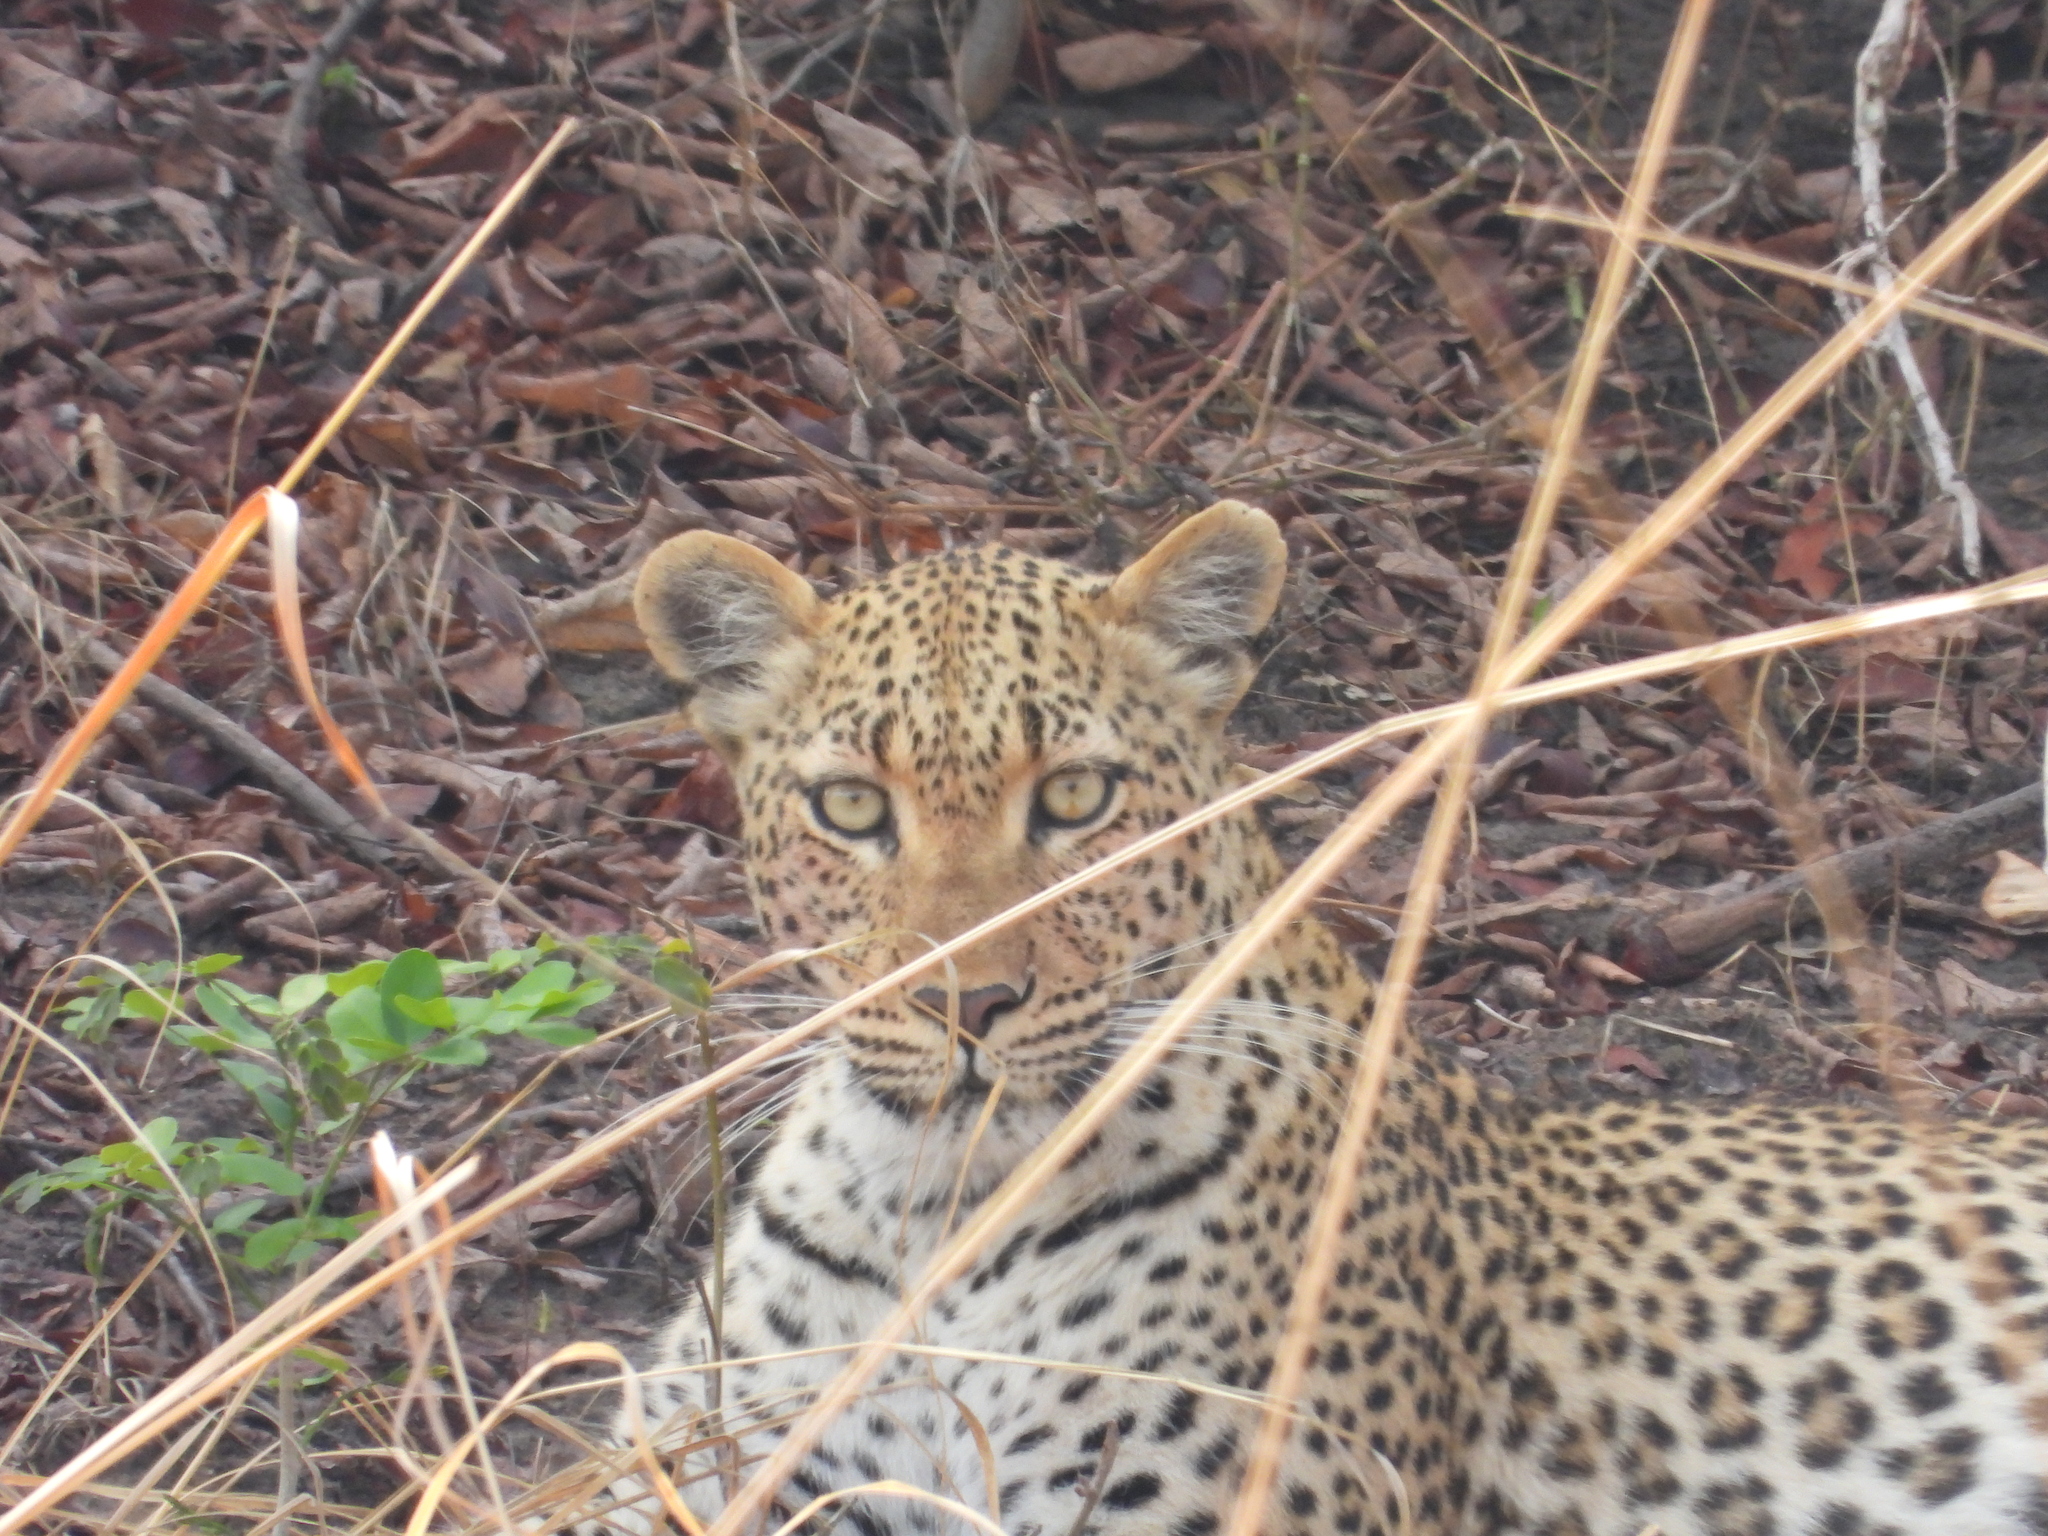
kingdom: Animalia
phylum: Chordata
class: Mammalia
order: Carnivora
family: Felidae
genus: Panthera
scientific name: Panthera pardus
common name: Leopard
